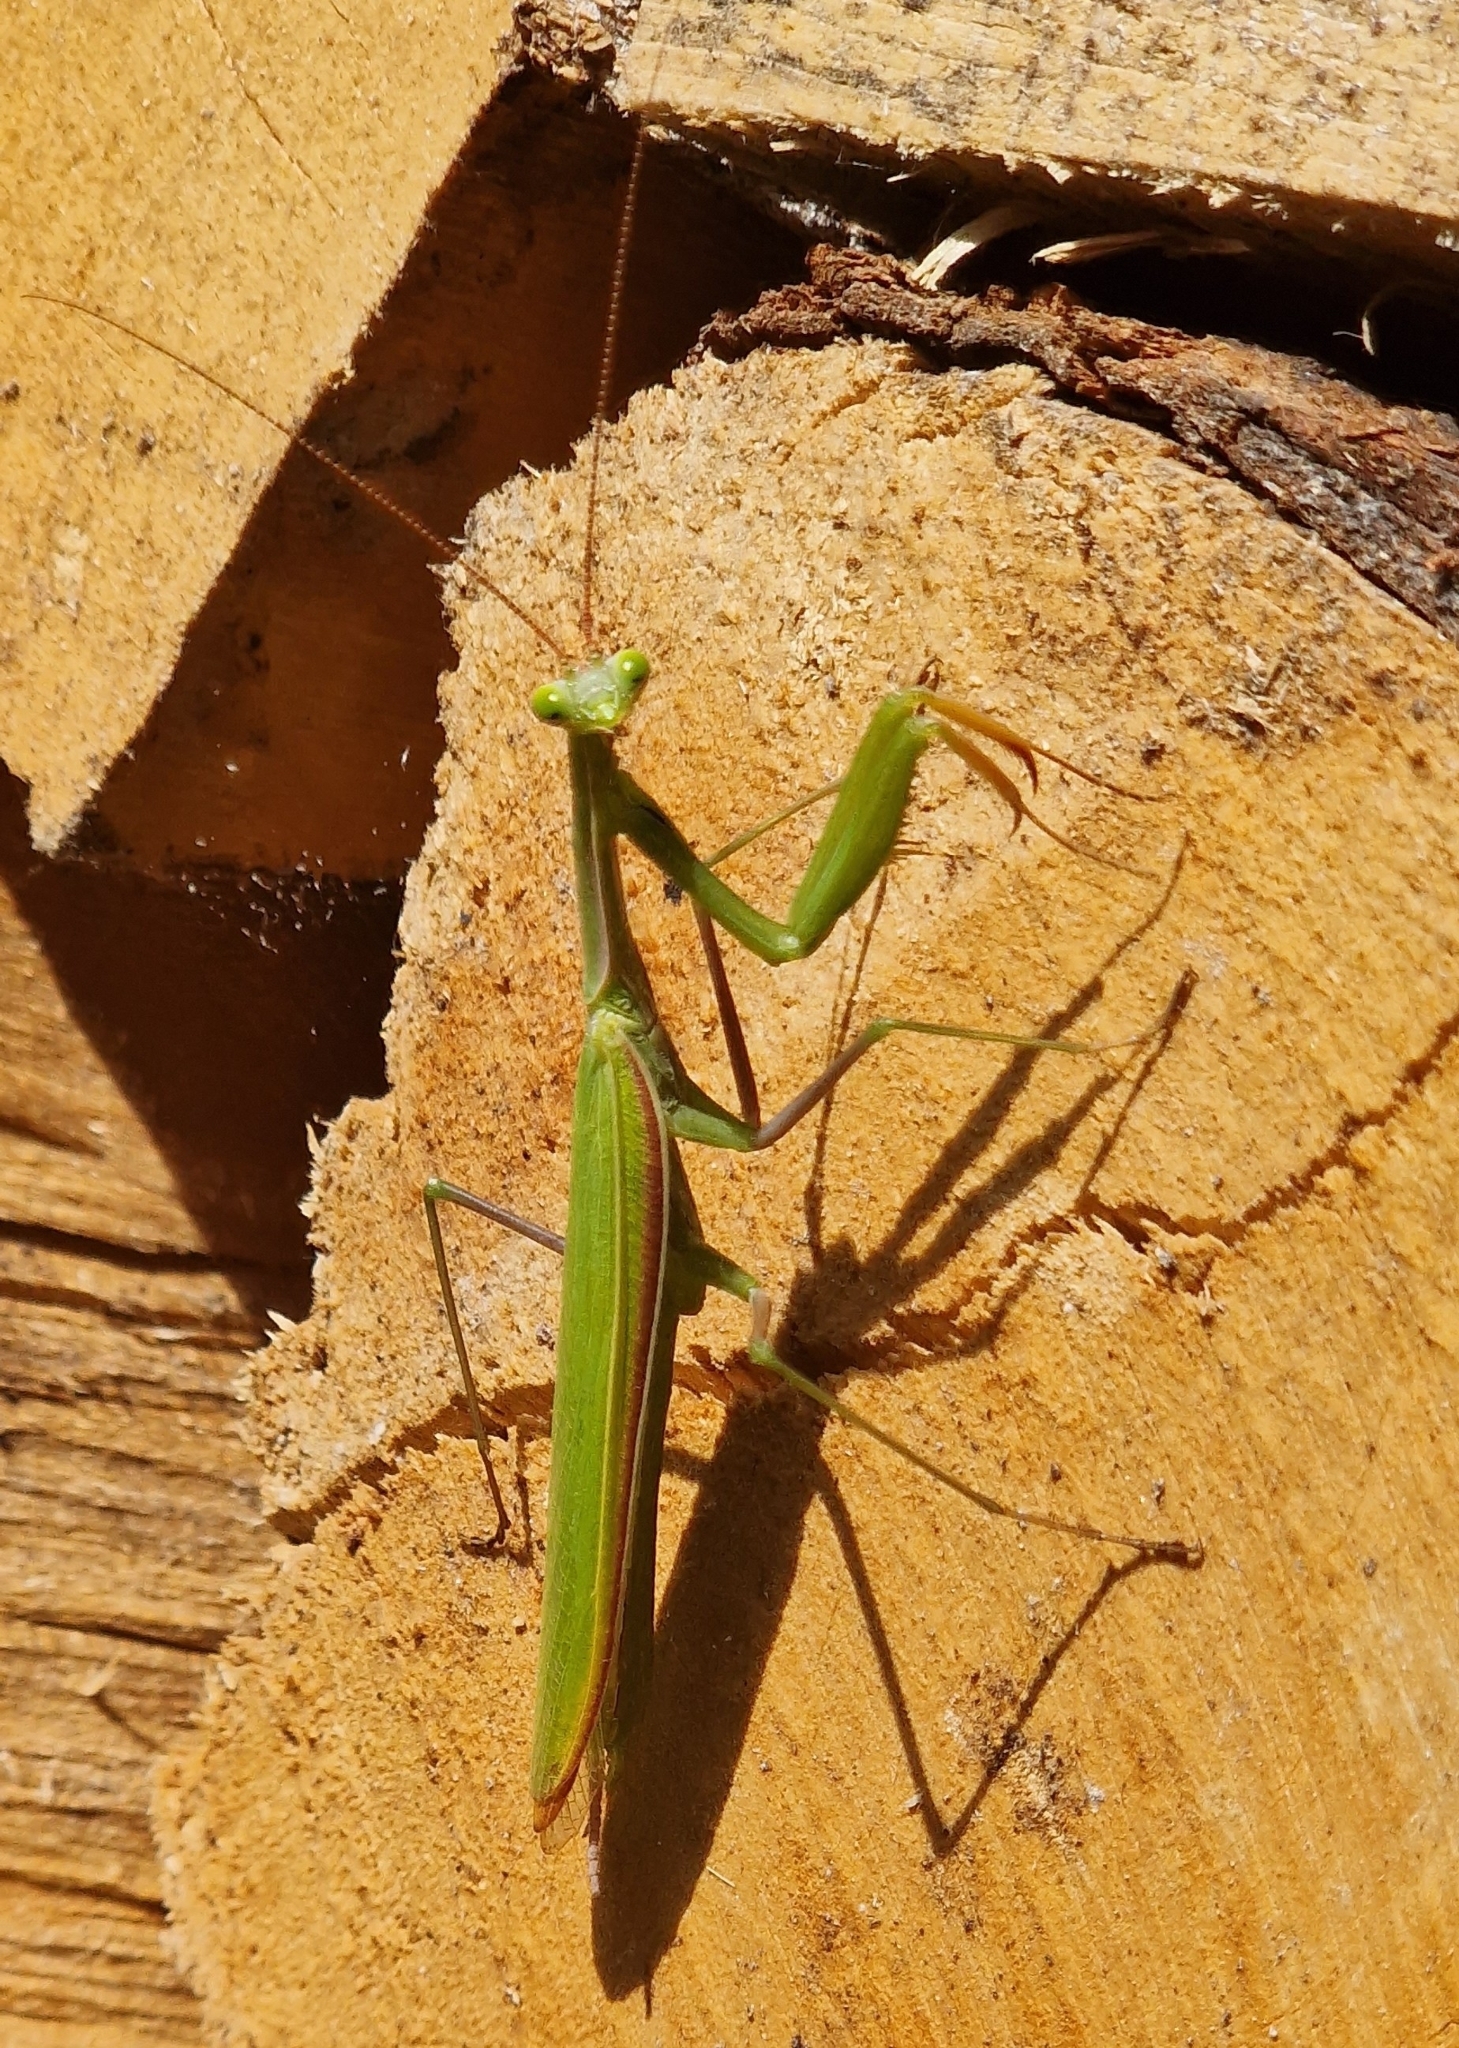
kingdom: Animalia
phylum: Arthropoda
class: Insecta
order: Mantodea
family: Mantidae
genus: Mantis
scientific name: Mantis religiosa
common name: Praying mantis
